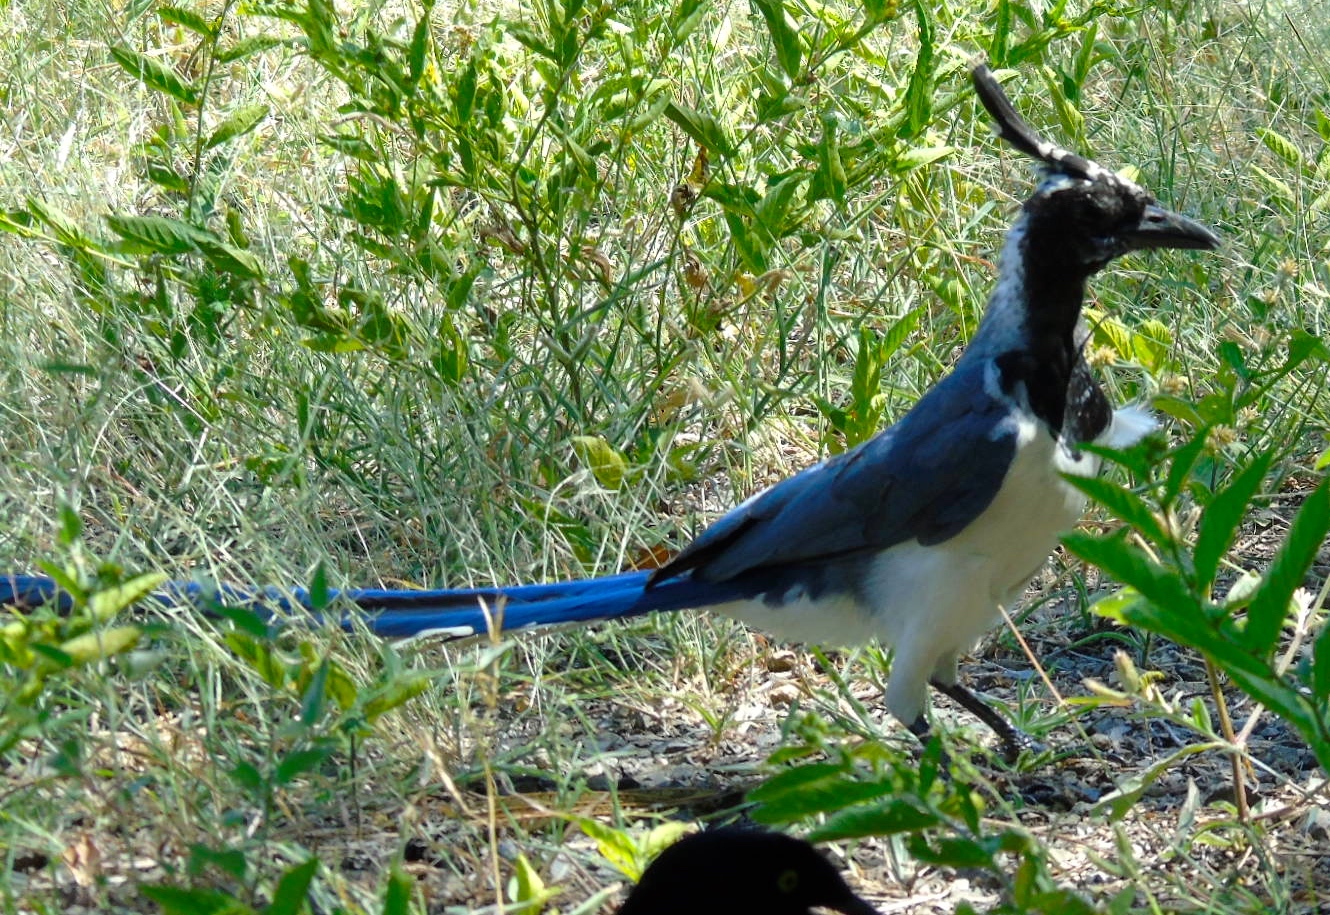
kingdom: Animalia
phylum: Chordata
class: Aves
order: Passeriformes
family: Corvidae
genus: Calocitta
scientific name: Calocitta colliei
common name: Black-throated magpie-jay
